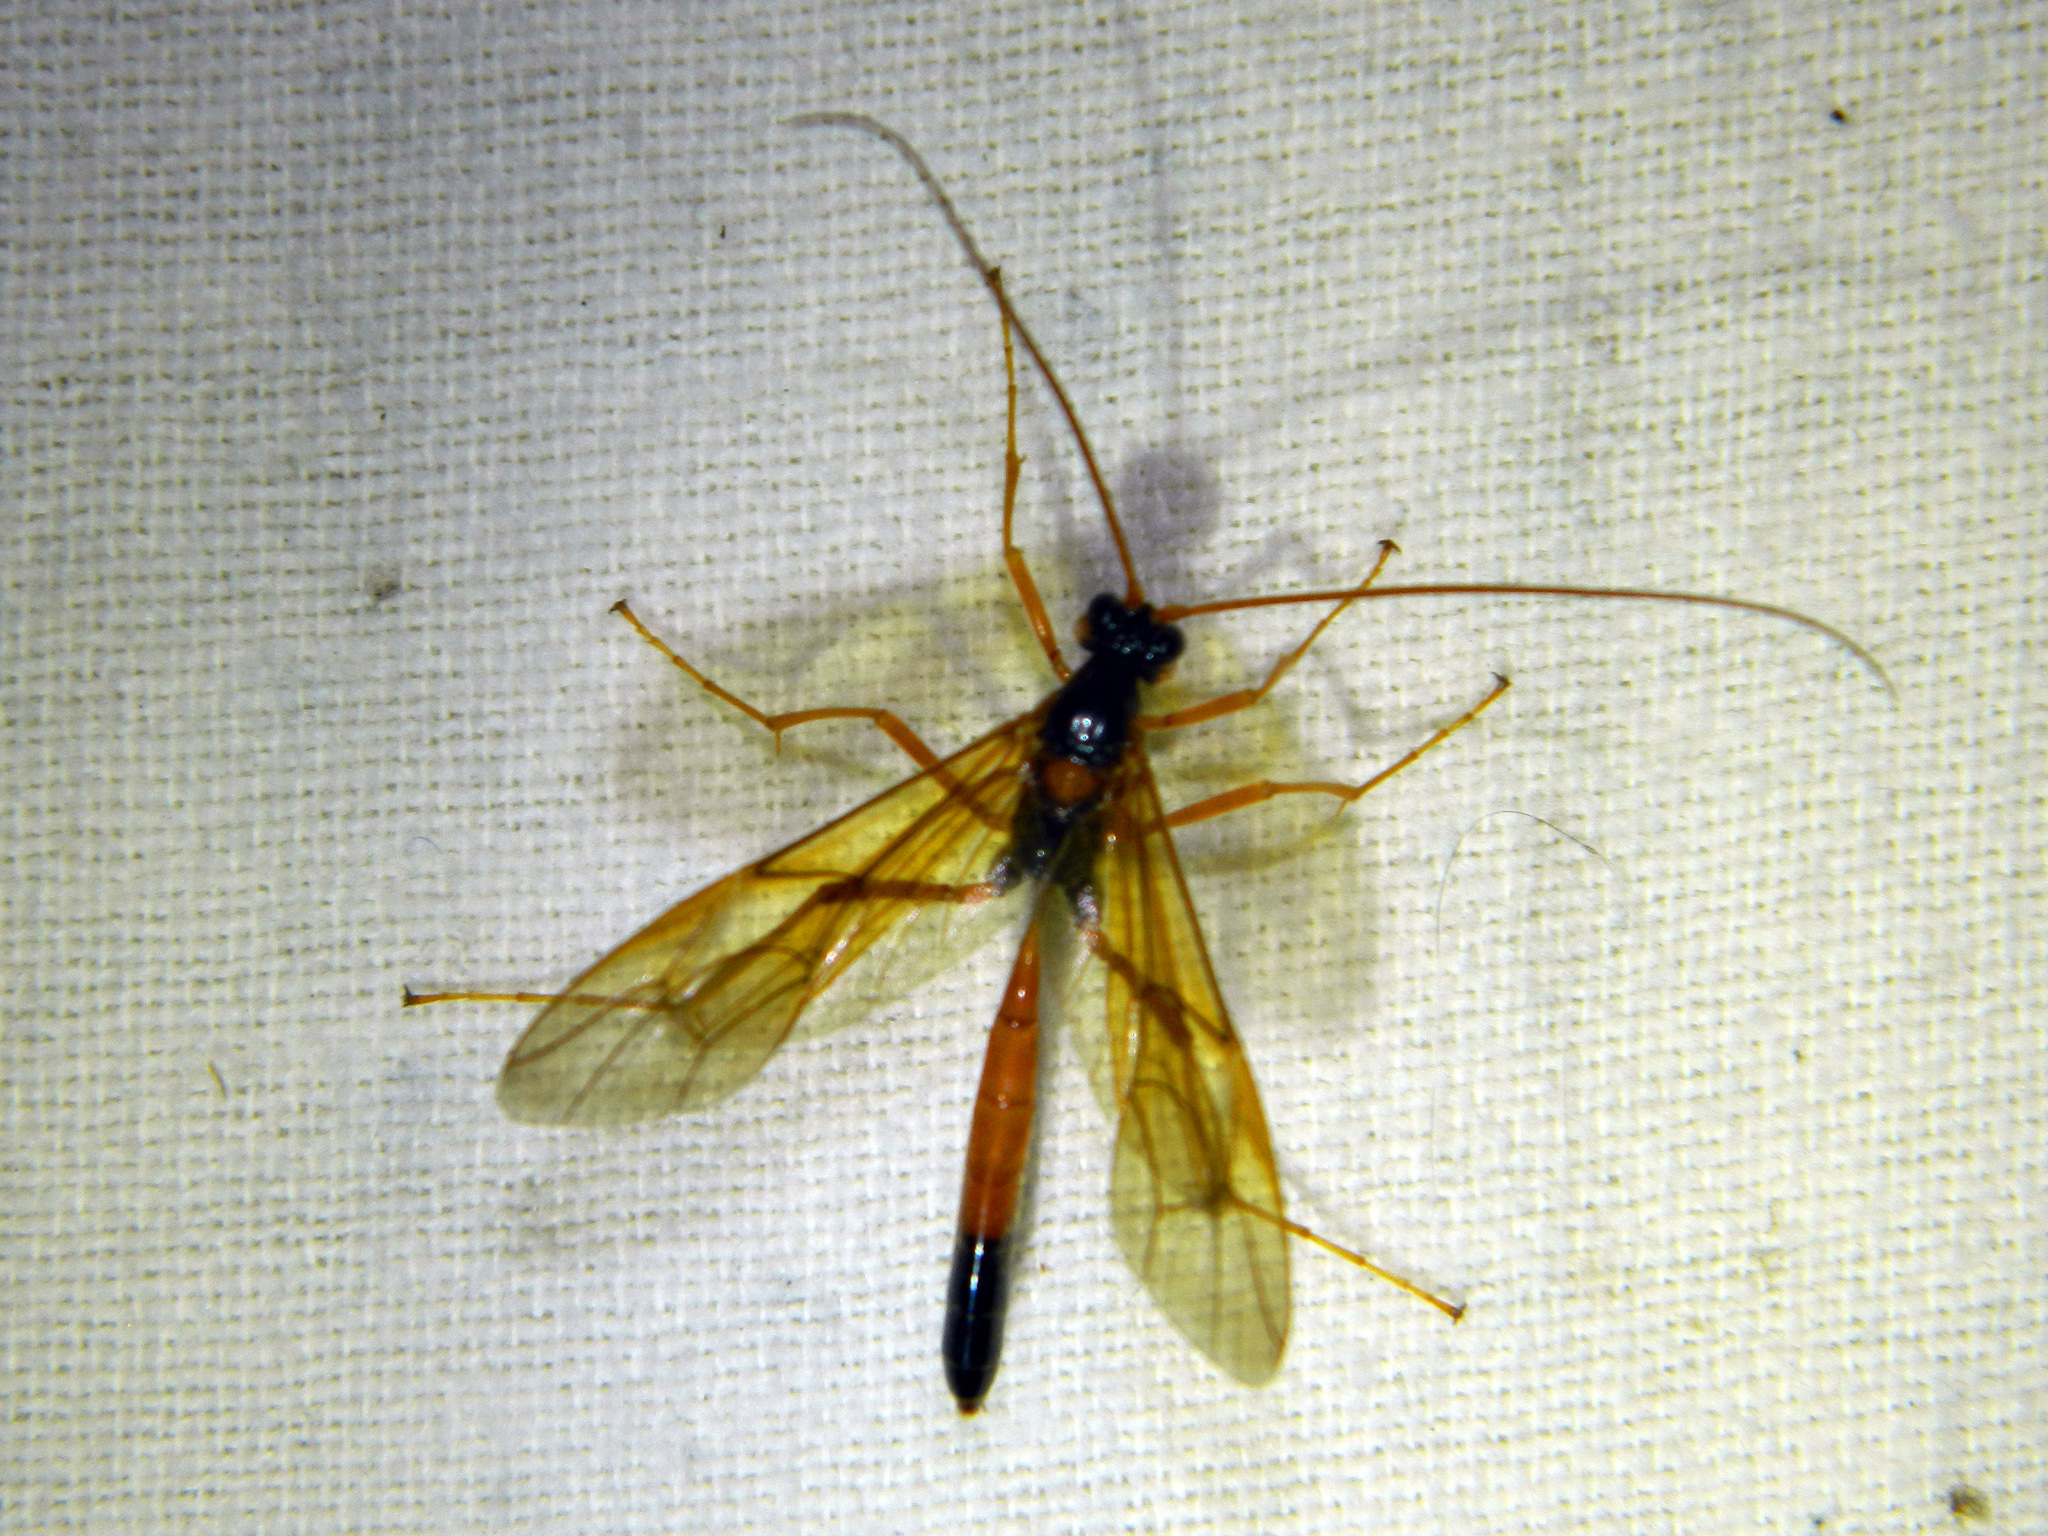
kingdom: Animalia
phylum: Arthropoda
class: Insecta
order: Hymenoptera
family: Ichneumonidae
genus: Opheltes
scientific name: Opheltes glaucopterus
